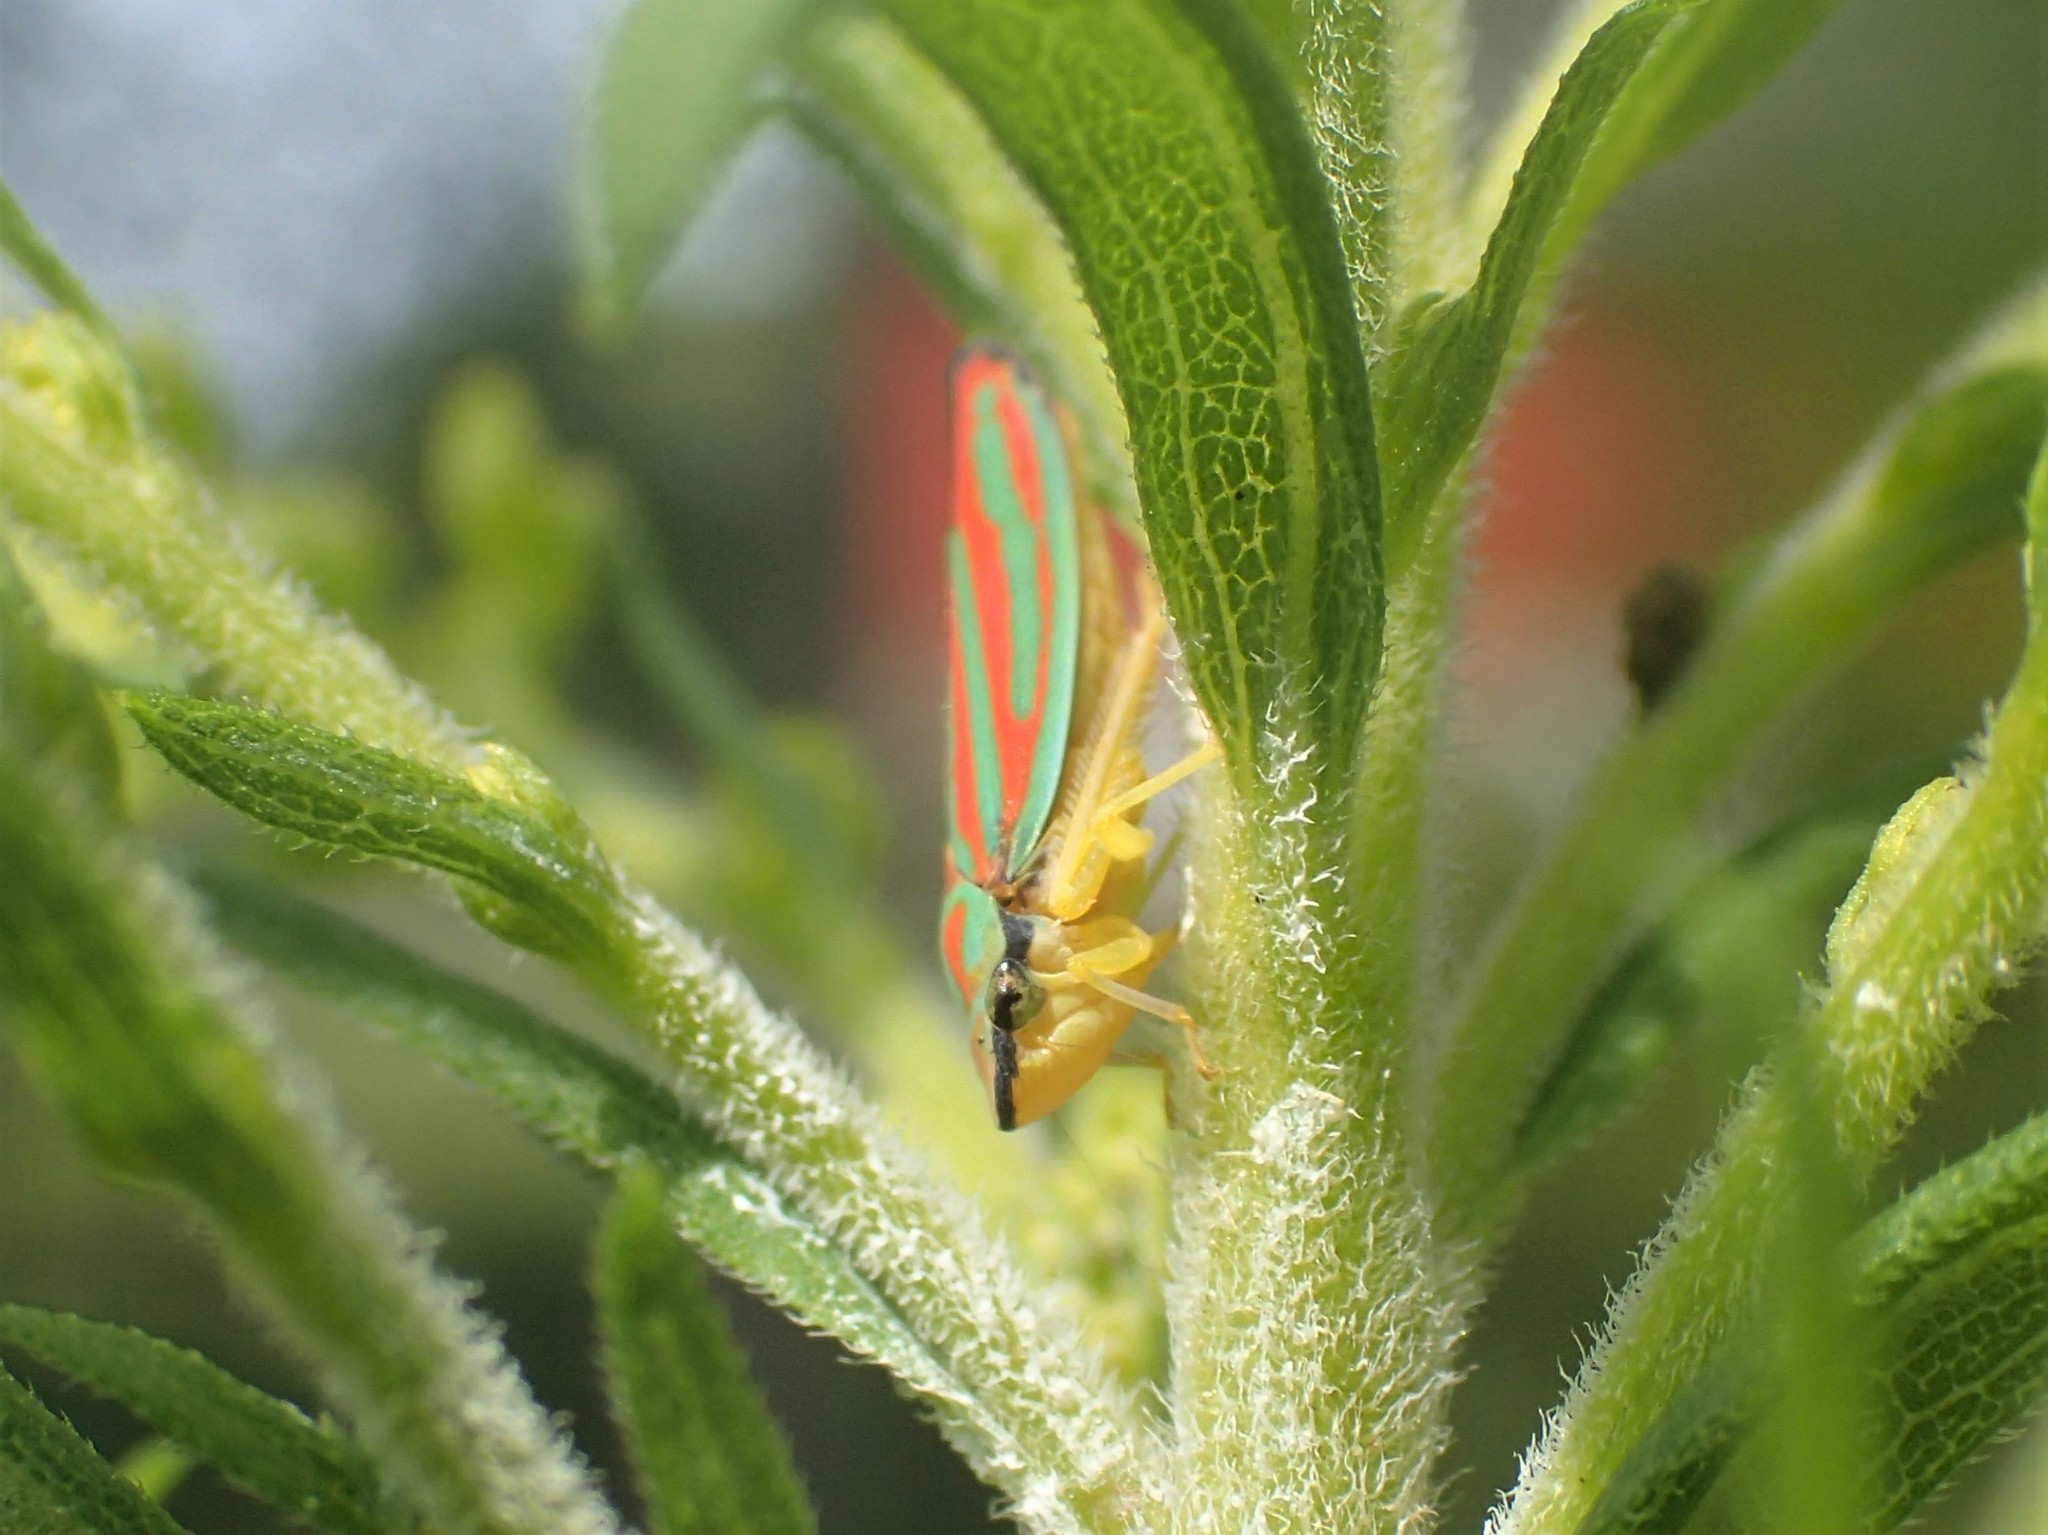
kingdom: Animalia
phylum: Arthropoda
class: Insecta
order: Hemiptera
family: Cicadellidae
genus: Graphocephala
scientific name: Graphocephala coccinea
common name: Candy-striped leafhopper
